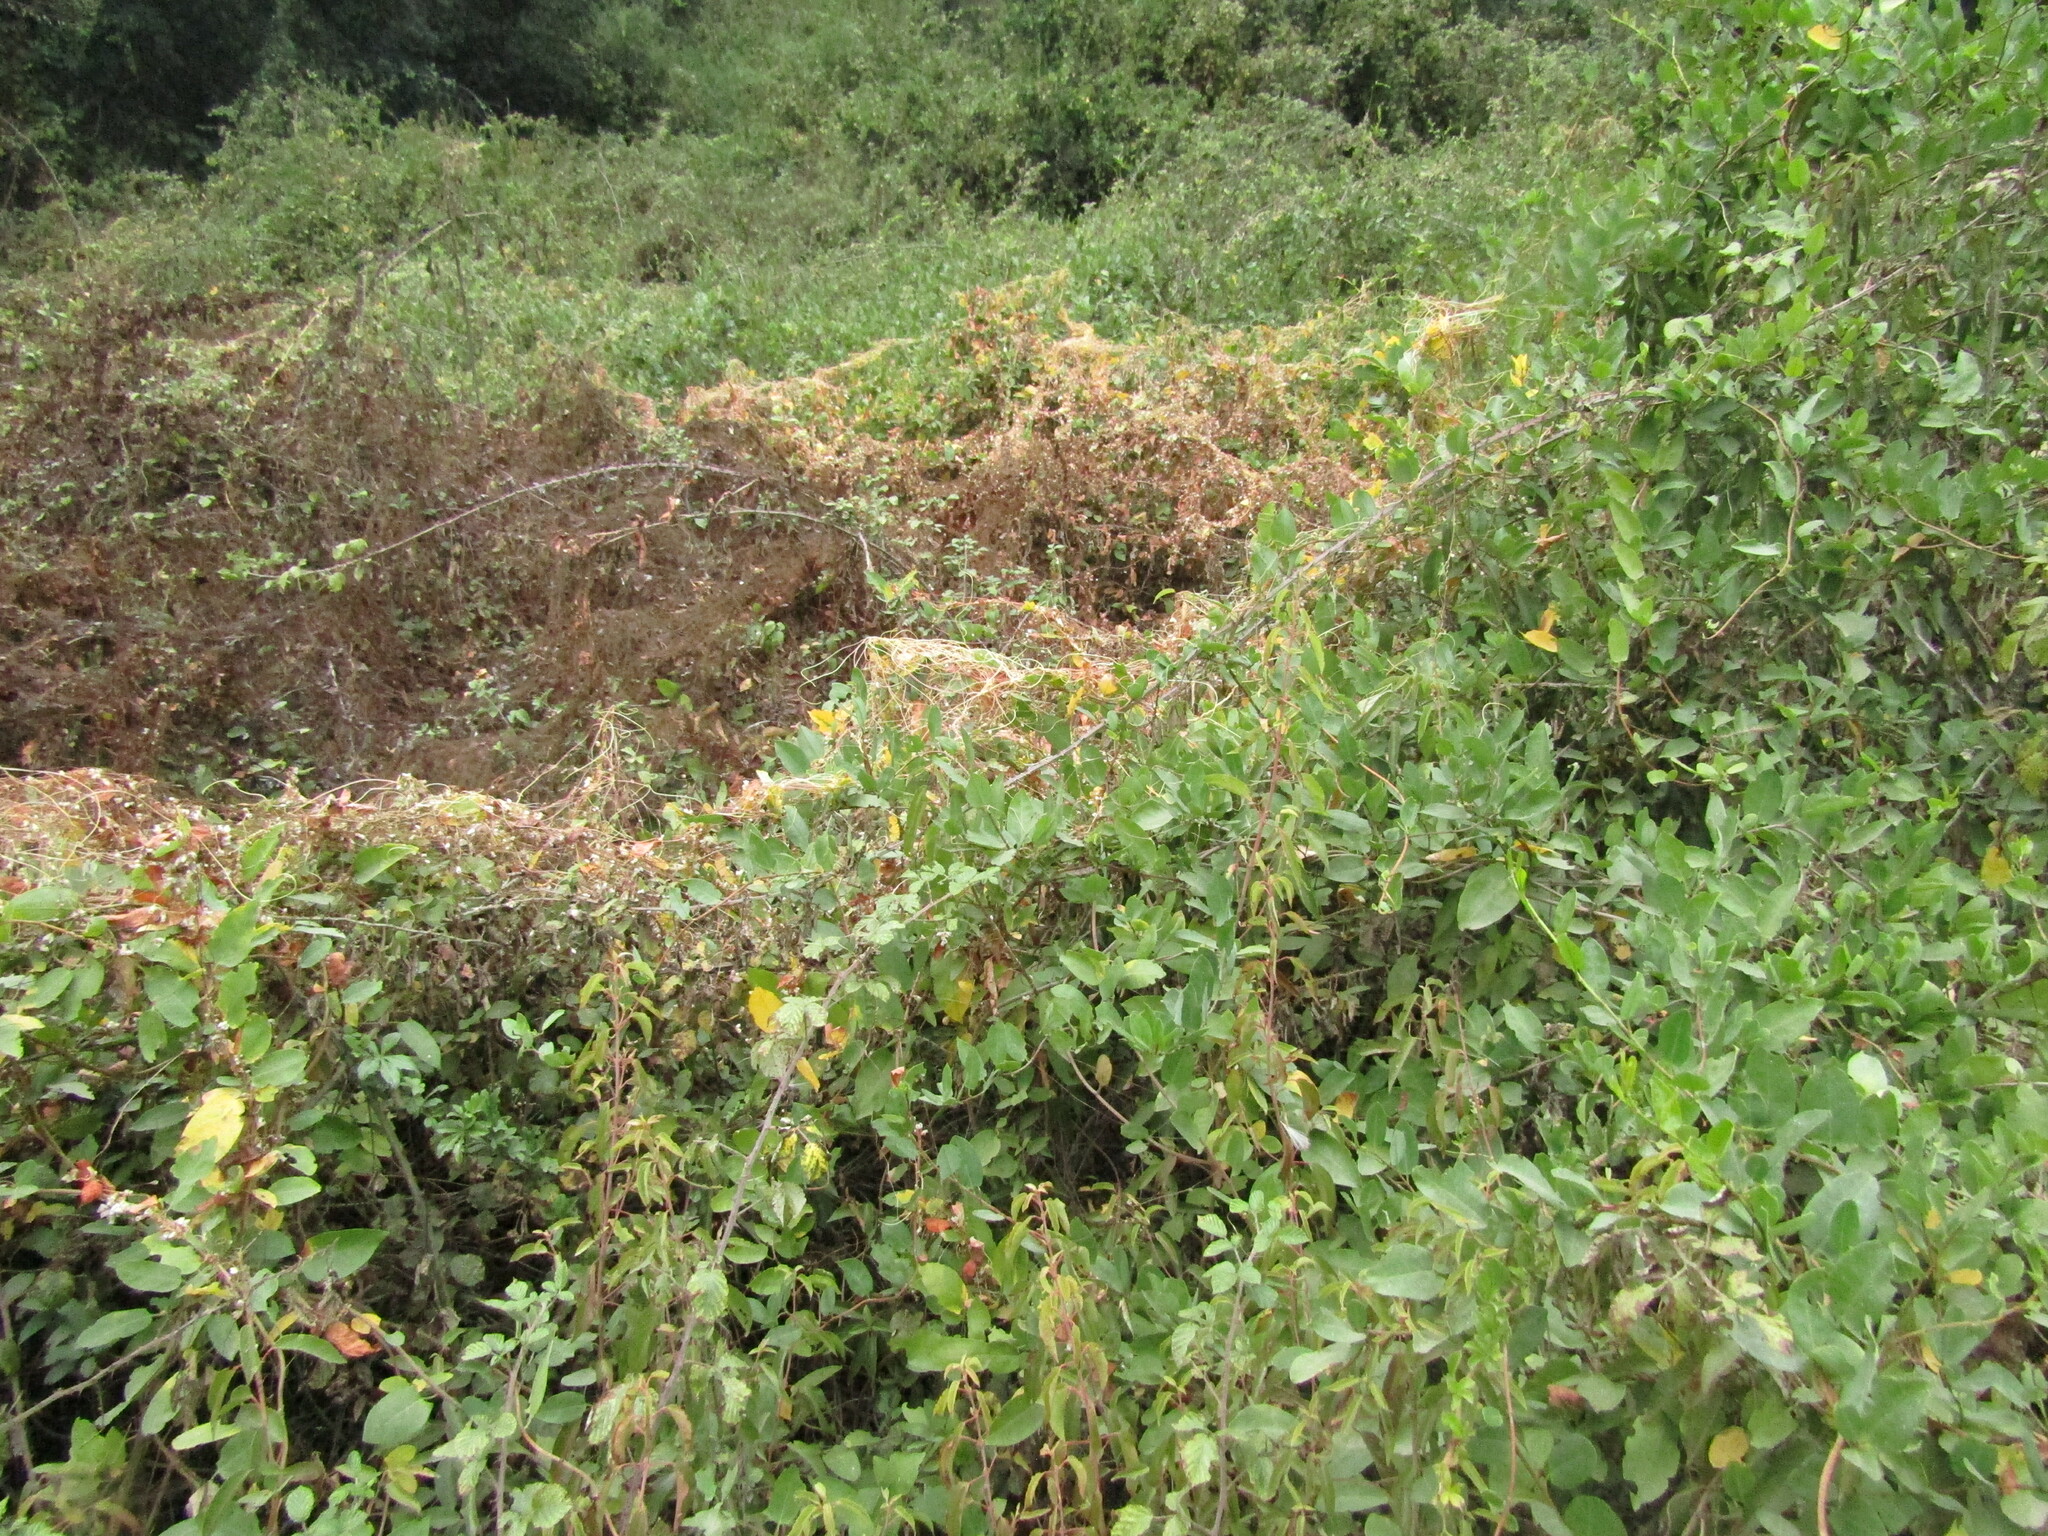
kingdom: Plantae
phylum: Tracheophyta
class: Magnoliopsida
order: Solanales
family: Convolvulaceae
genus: Cuscuta
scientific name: Cuscuta chilensis
